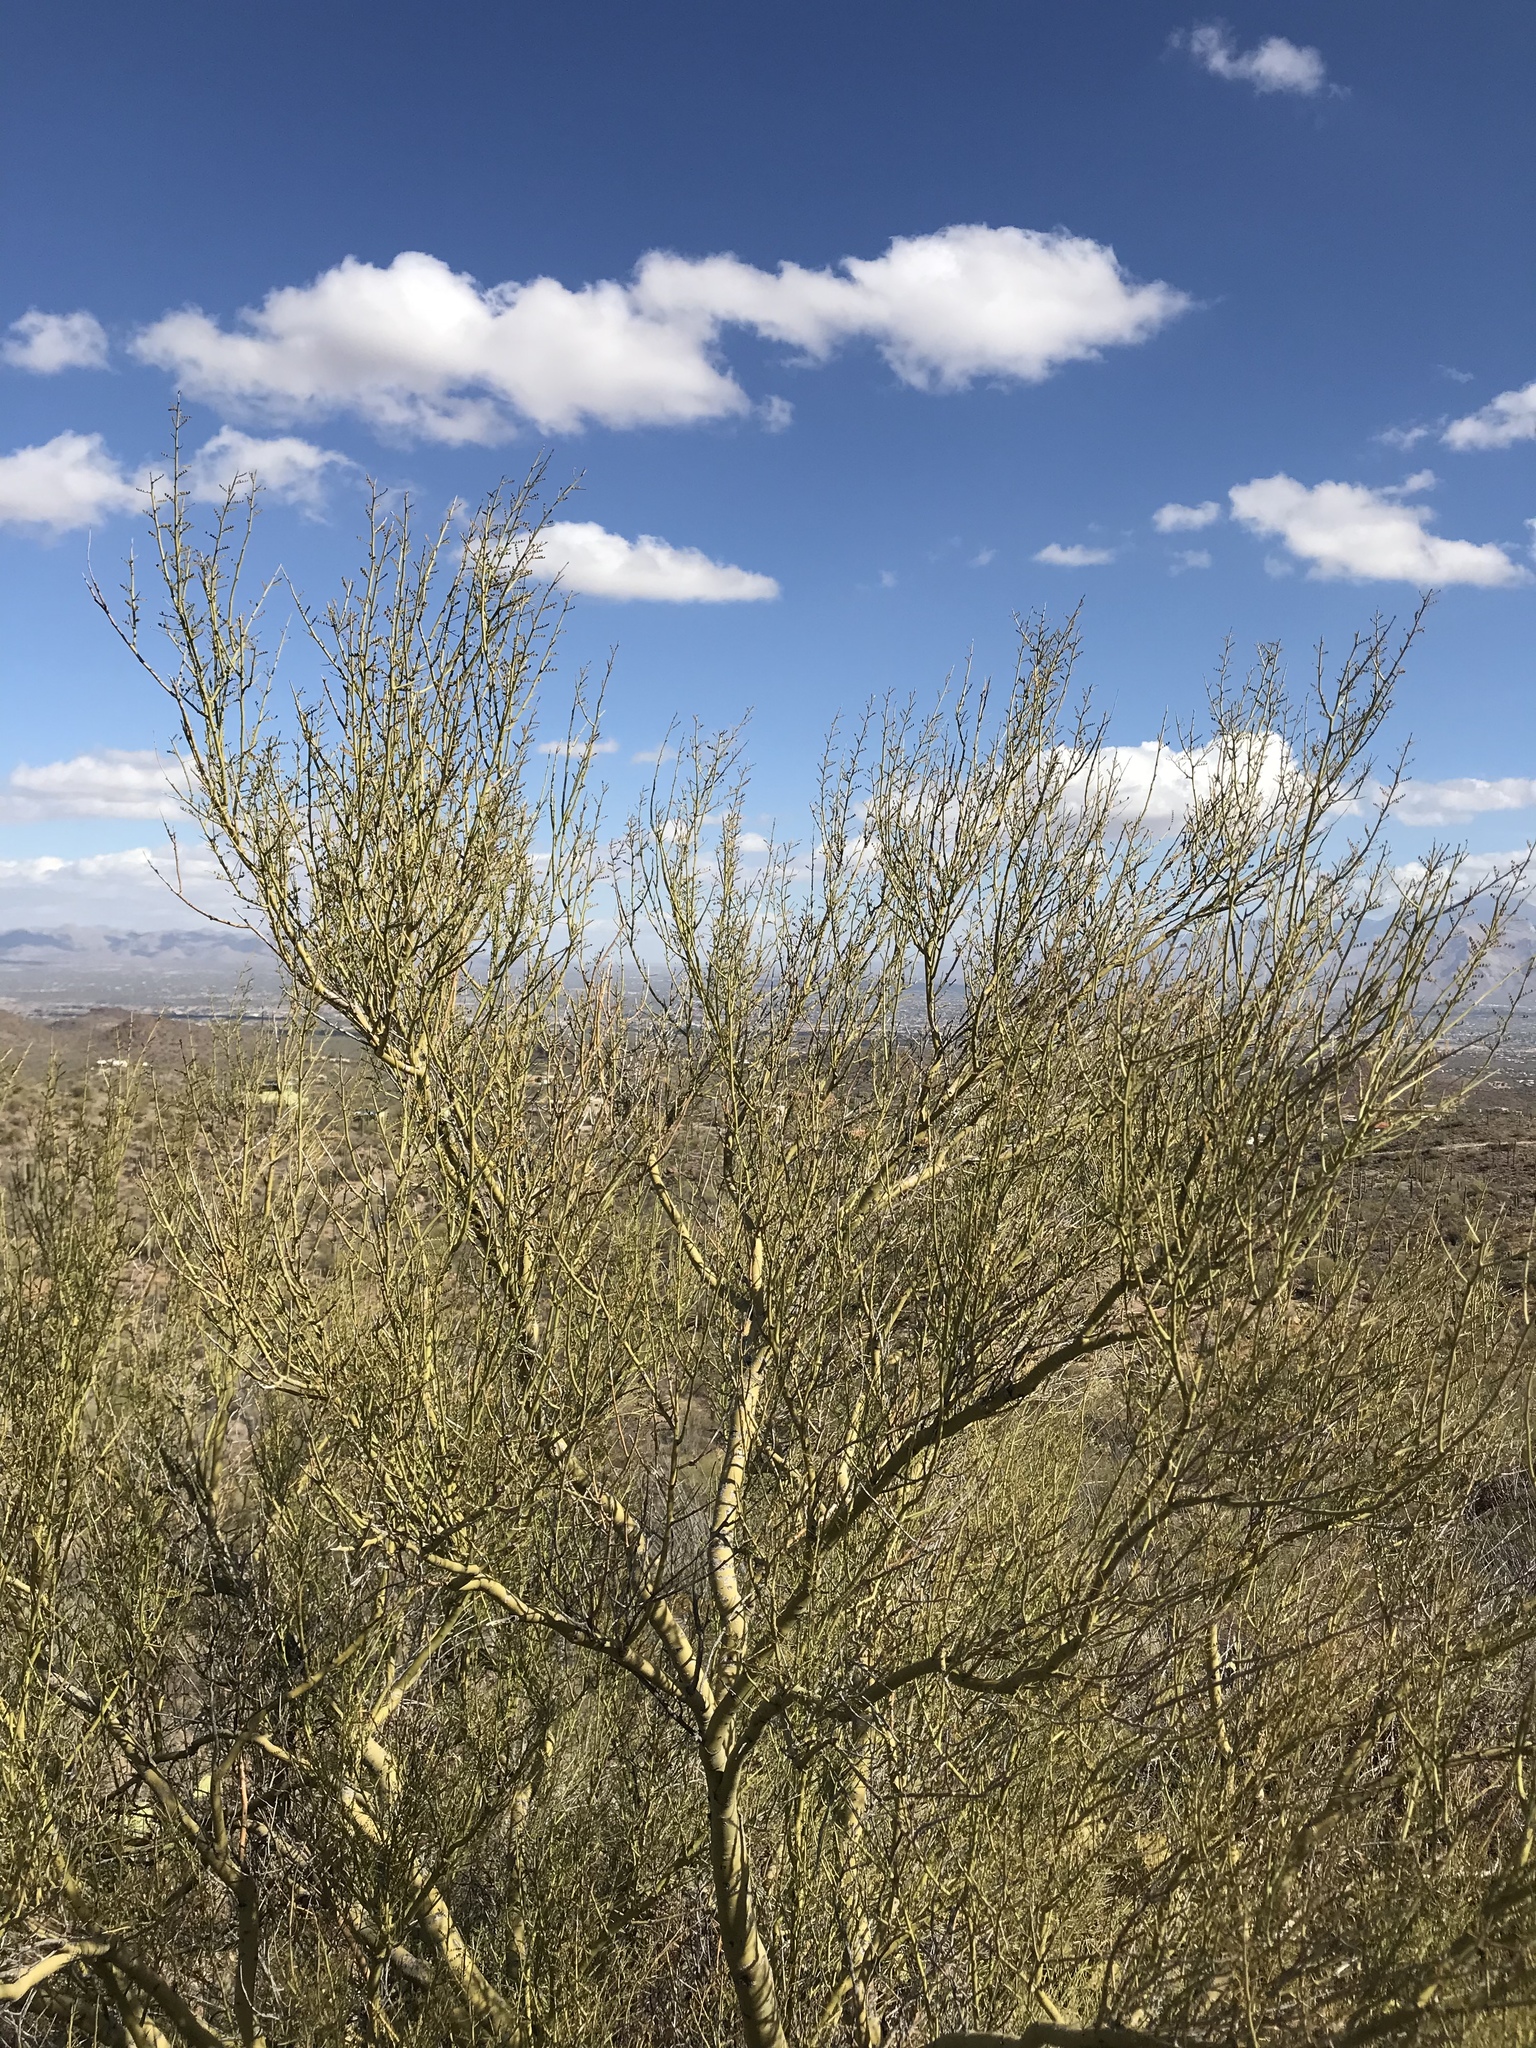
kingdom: Plantae
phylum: Tracheophyta
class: Magnoliopsida
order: Fabales
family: Fabaceae
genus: Parkinsonia
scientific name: Parkinsonia microphylla
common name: Yellow paloverde
